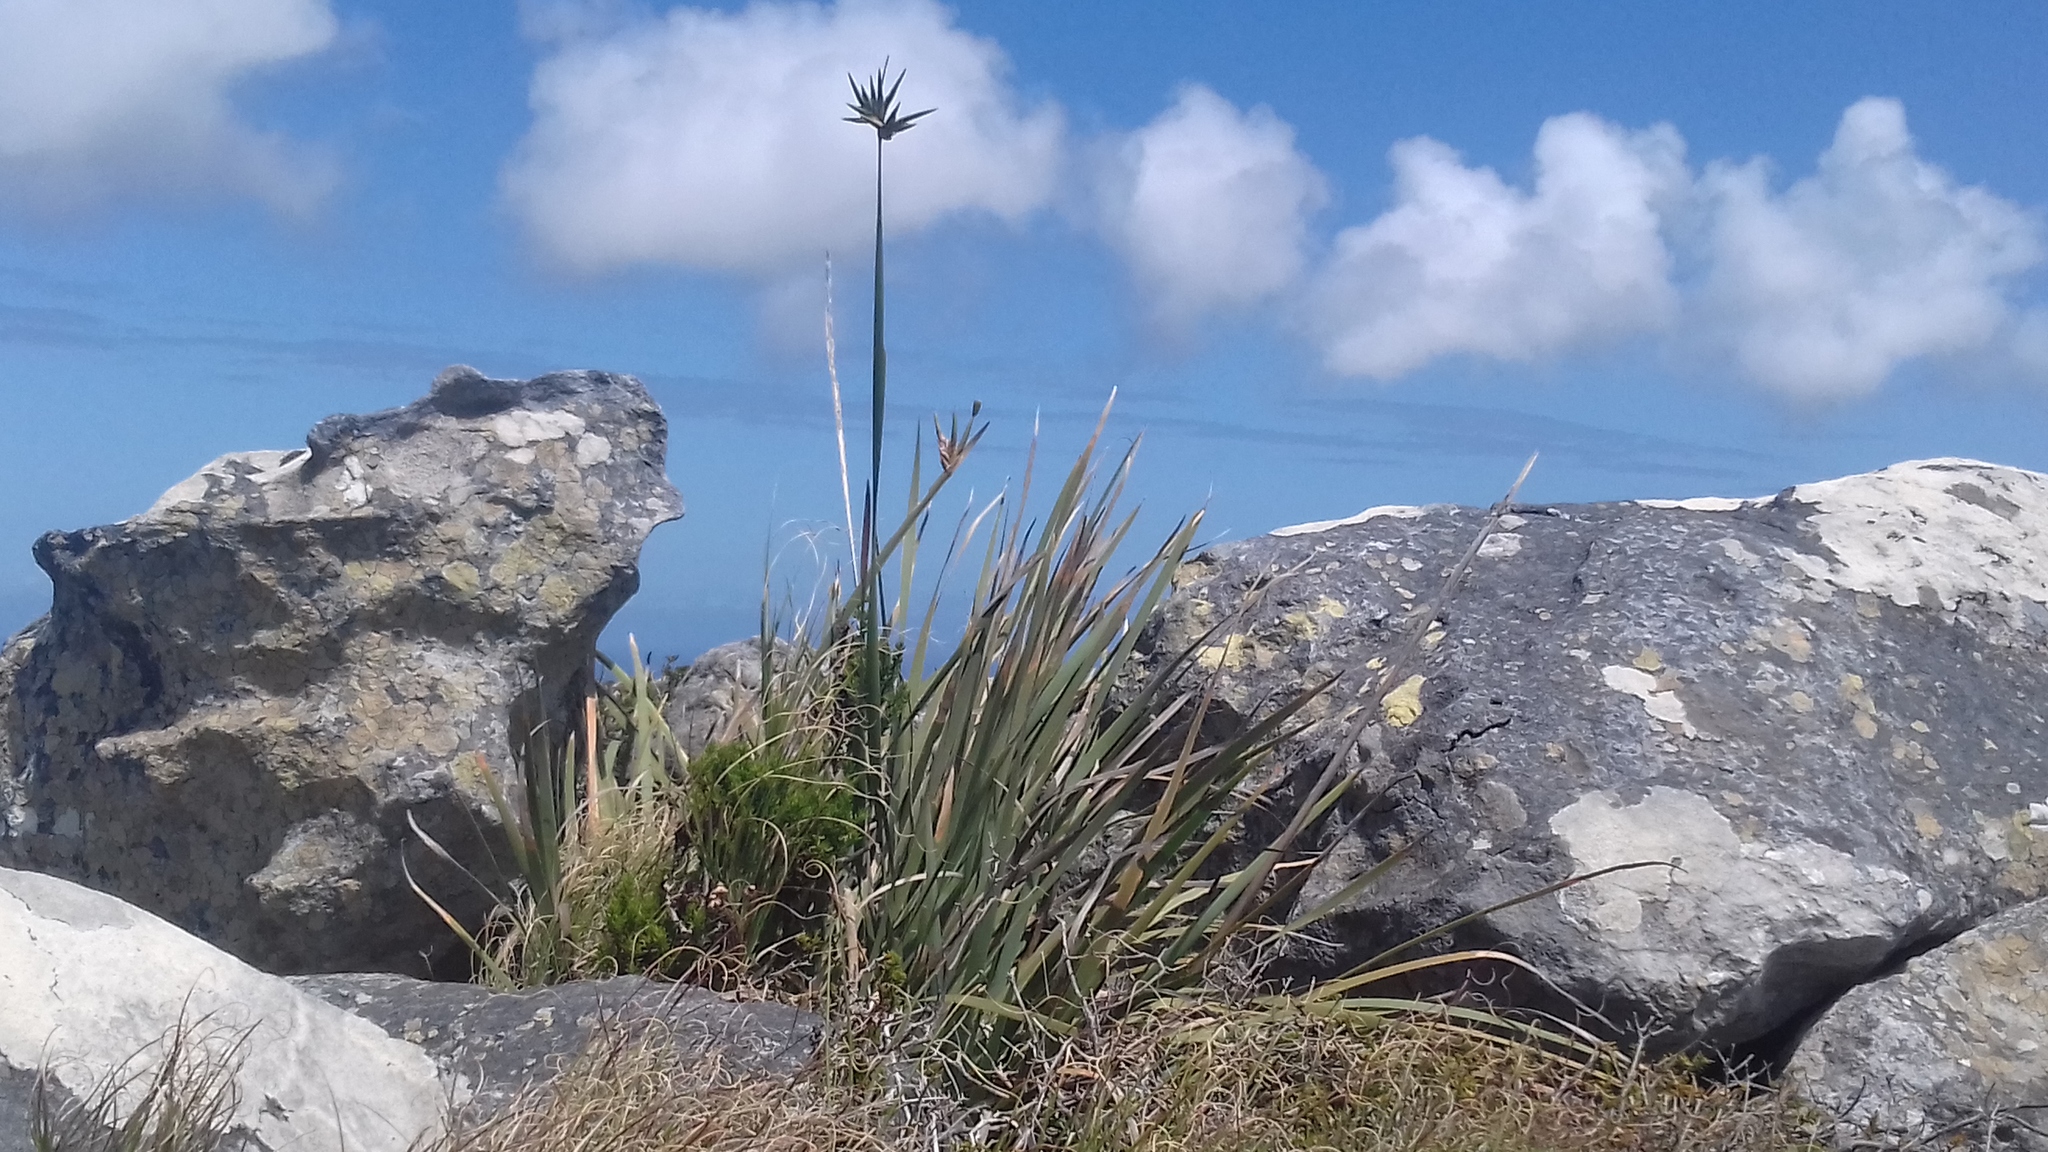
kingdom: Plantae
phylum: Tracheophyta
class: Liliopsida
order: Asparagales
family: Iridaceae
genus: Bobartia
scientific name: Bobartia gladiata
